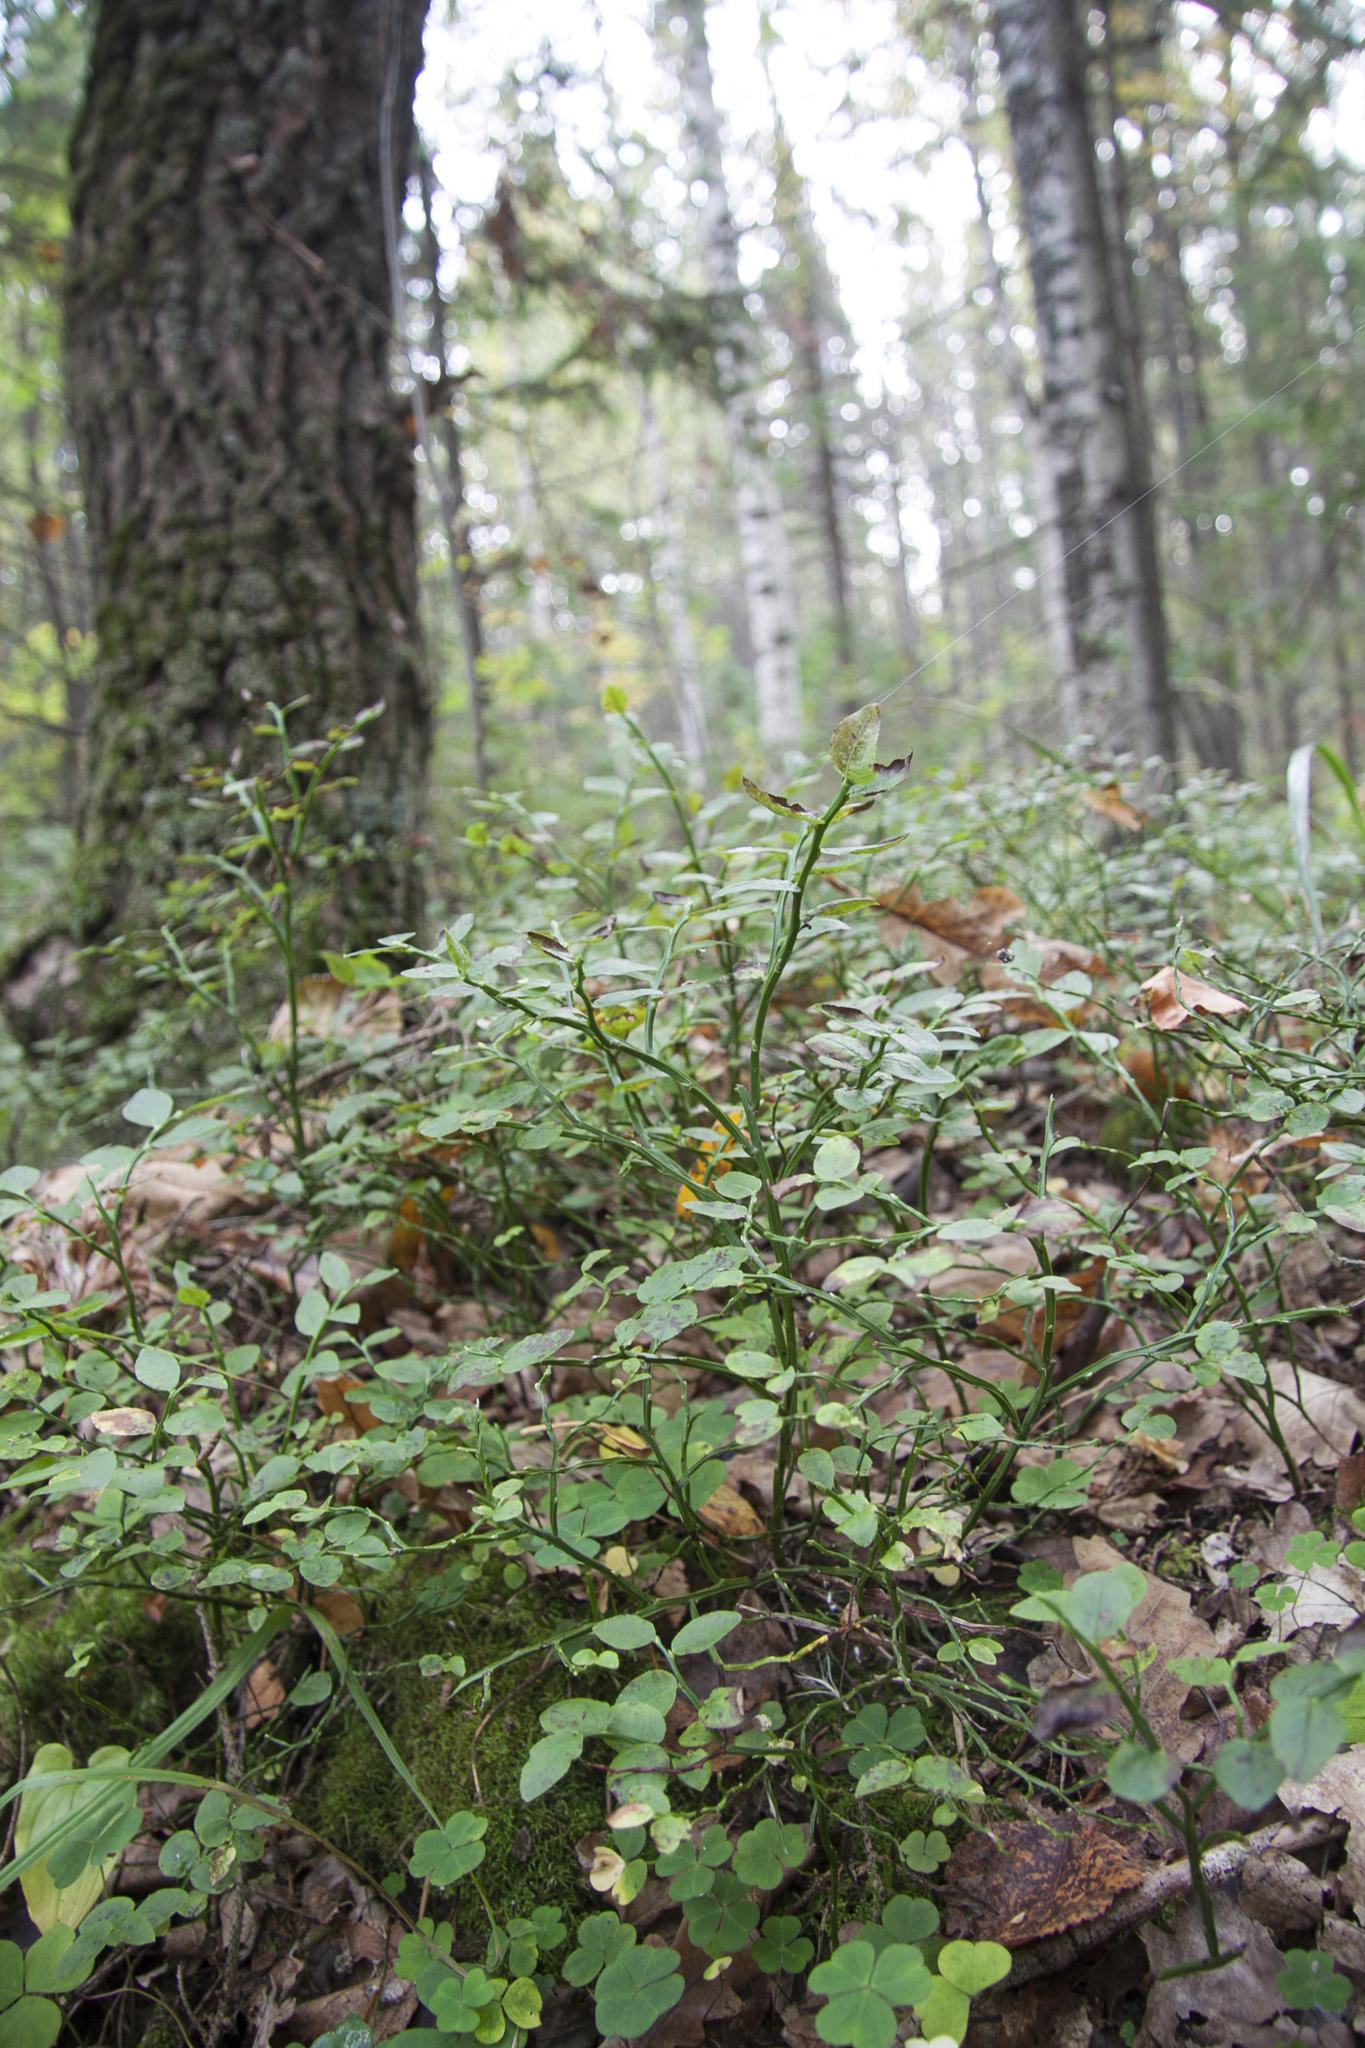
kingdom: Plantae
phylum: Tracheophyta
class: Magnoliopsida
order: Ericales
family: Ericaceae
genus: Vaccinium
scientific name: Vaccinium myrtillus
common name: Bilberry
